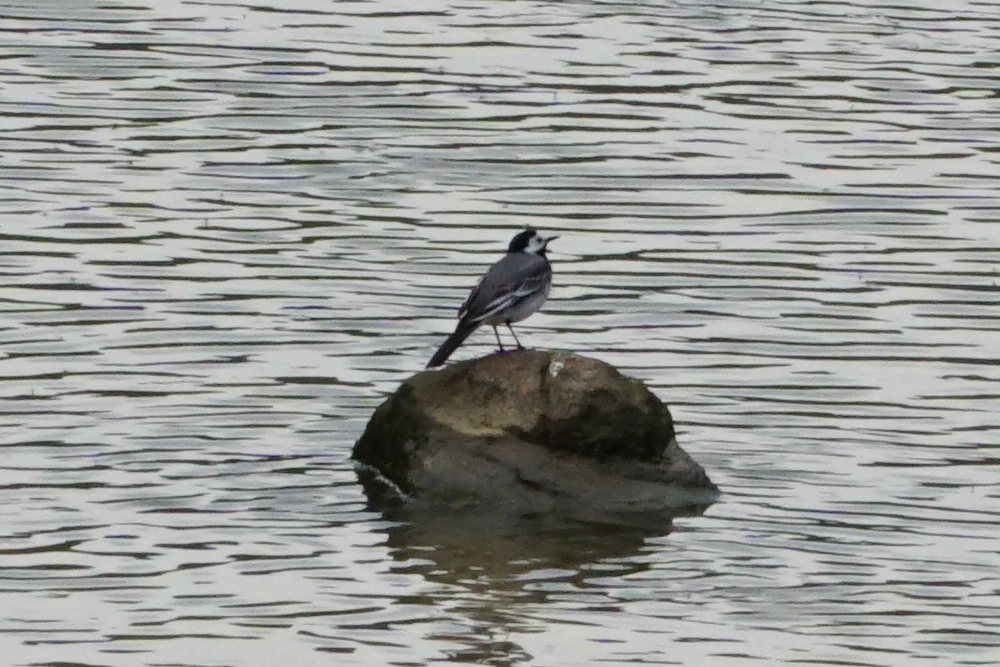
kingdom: Animalia
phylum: Chordata
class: Aves
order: Passeriformes
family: Motacillidae
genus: Motacilla
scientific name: Motacilla alba
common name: White wagtail
